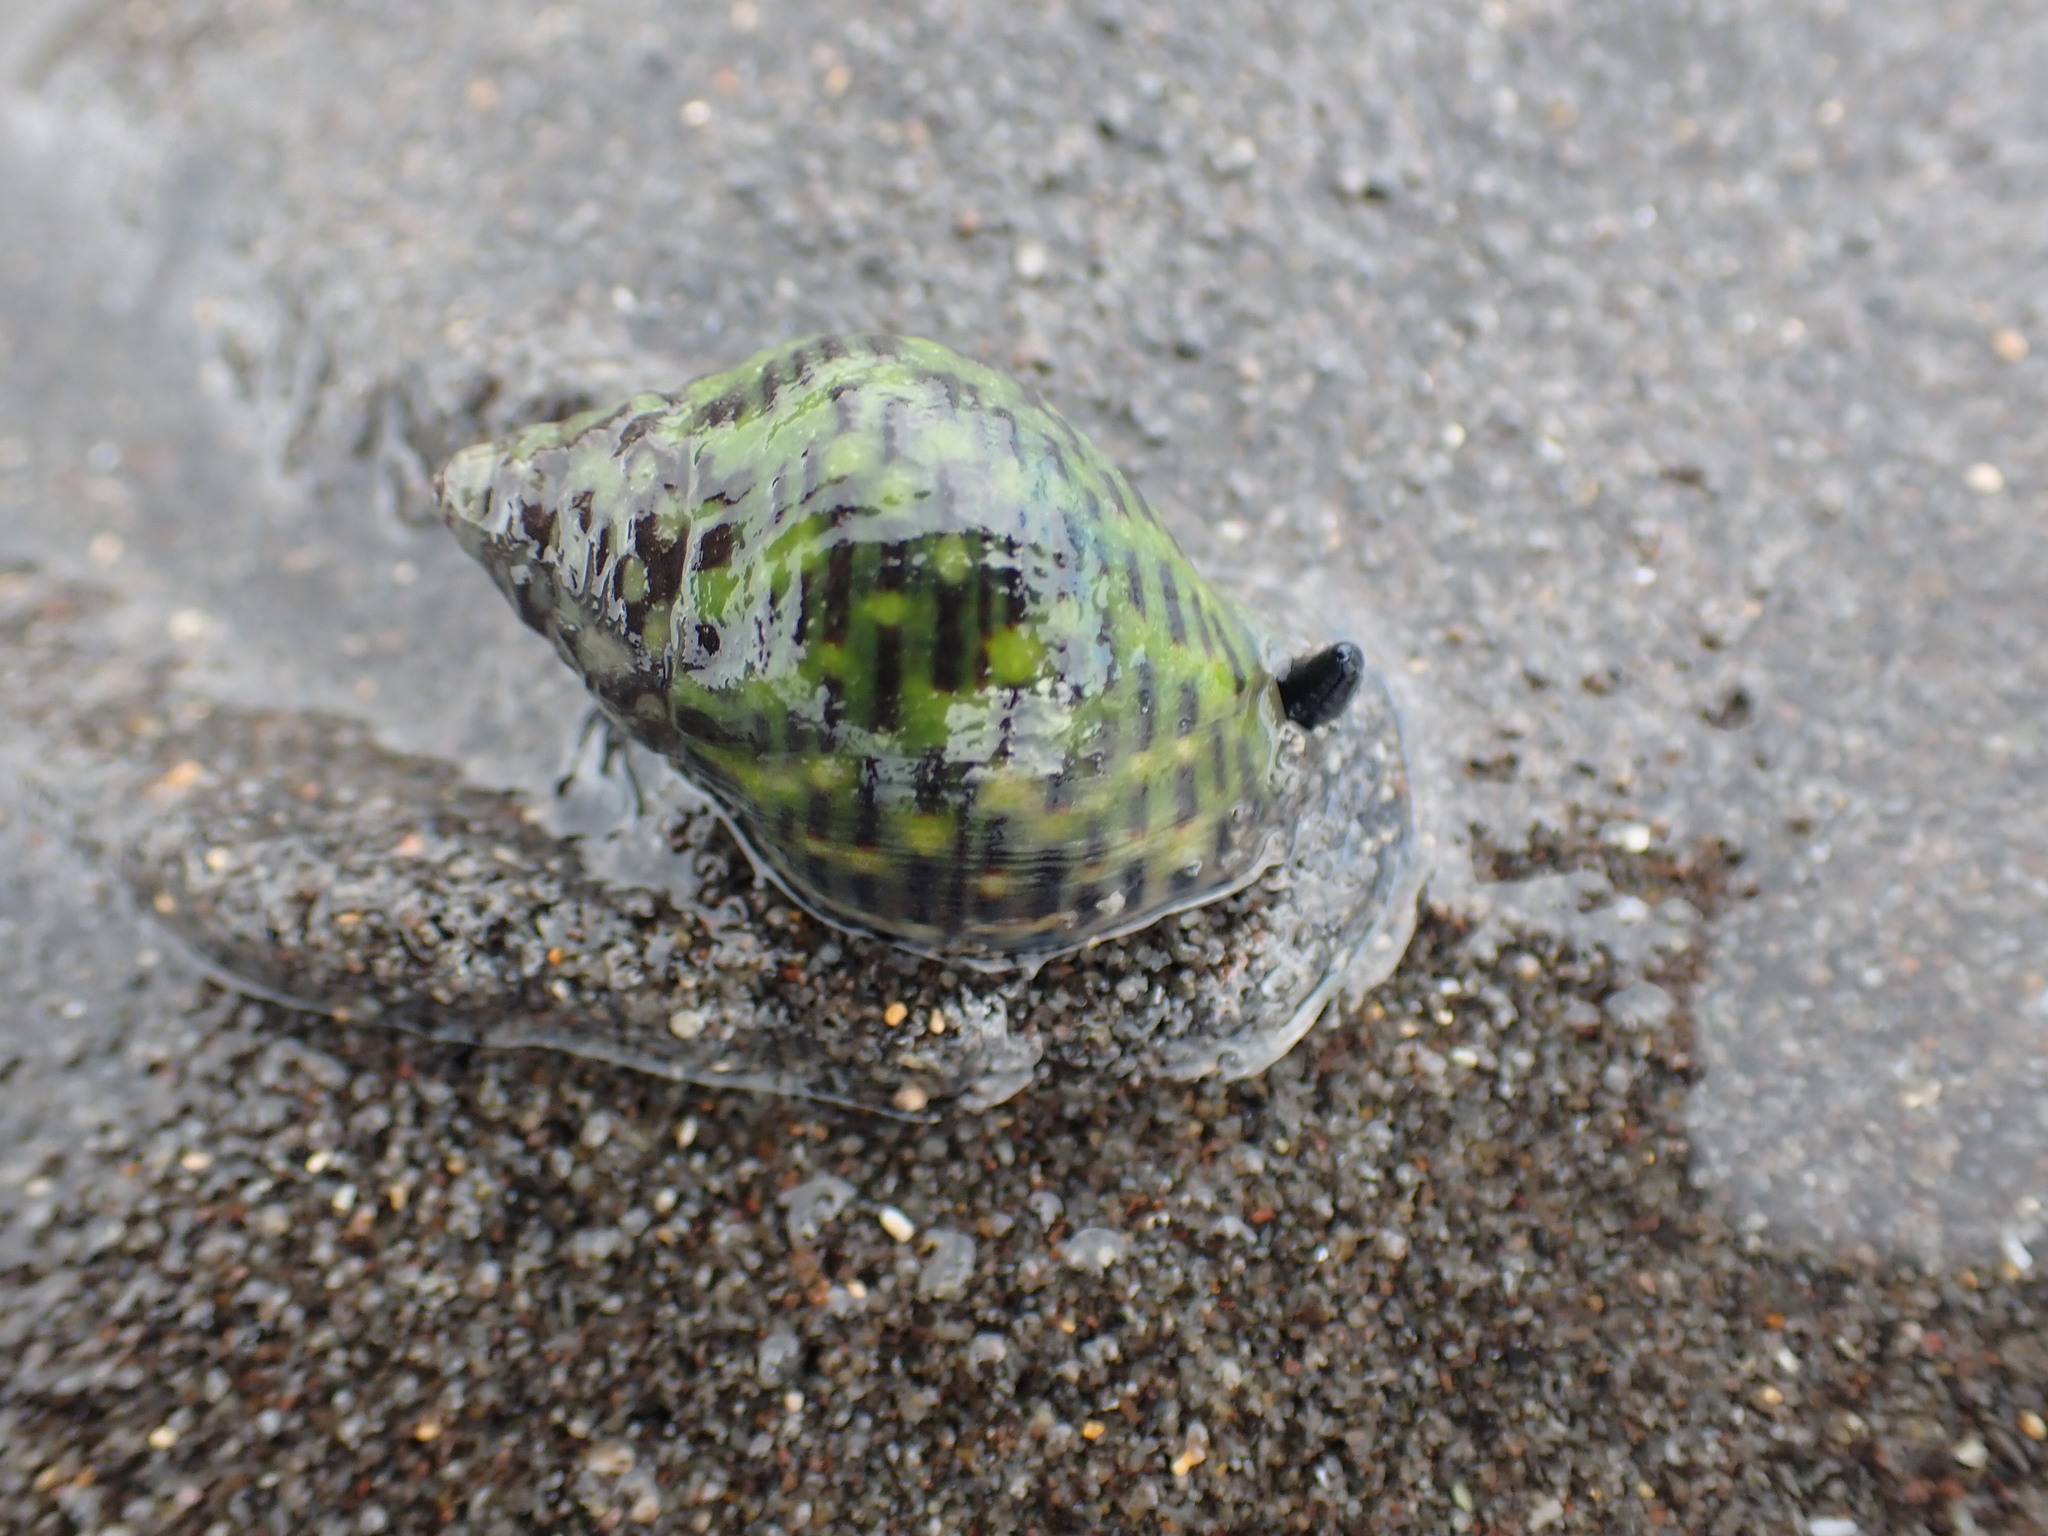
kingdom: Animalia
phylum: Mollusca
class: Gastropoda
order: Neogastropoda
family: Cominellidae
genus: Cominella
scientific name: Cominella maculosa
